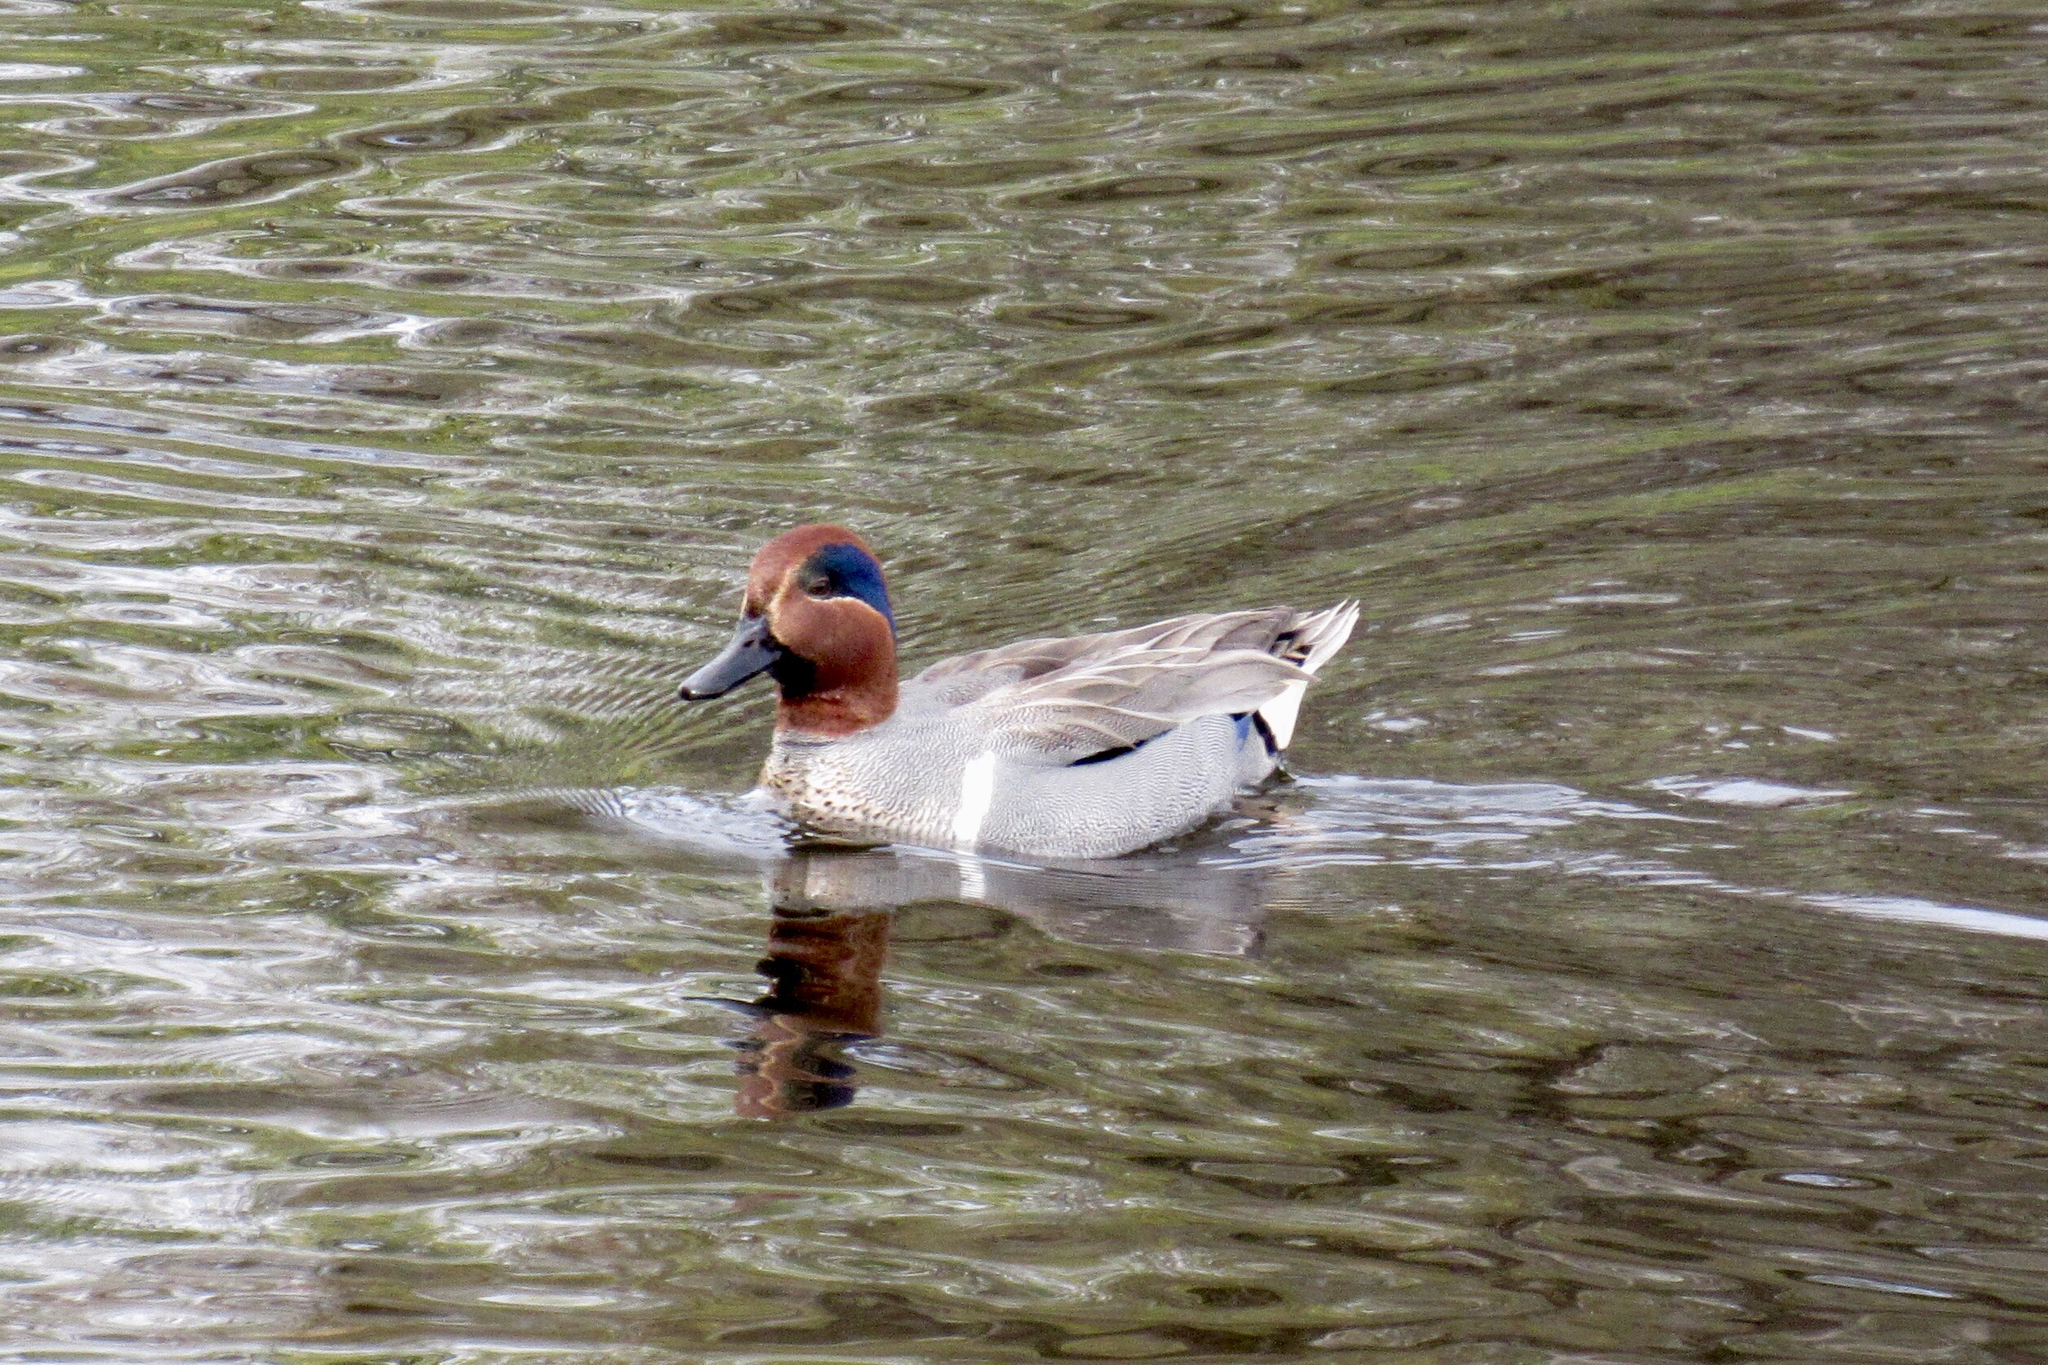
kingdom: Animalia
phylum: Chordata
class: Aves
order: Anseriformes
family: Anatidae
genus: Anas
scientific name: Anas crecca
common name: Eurasian teal
